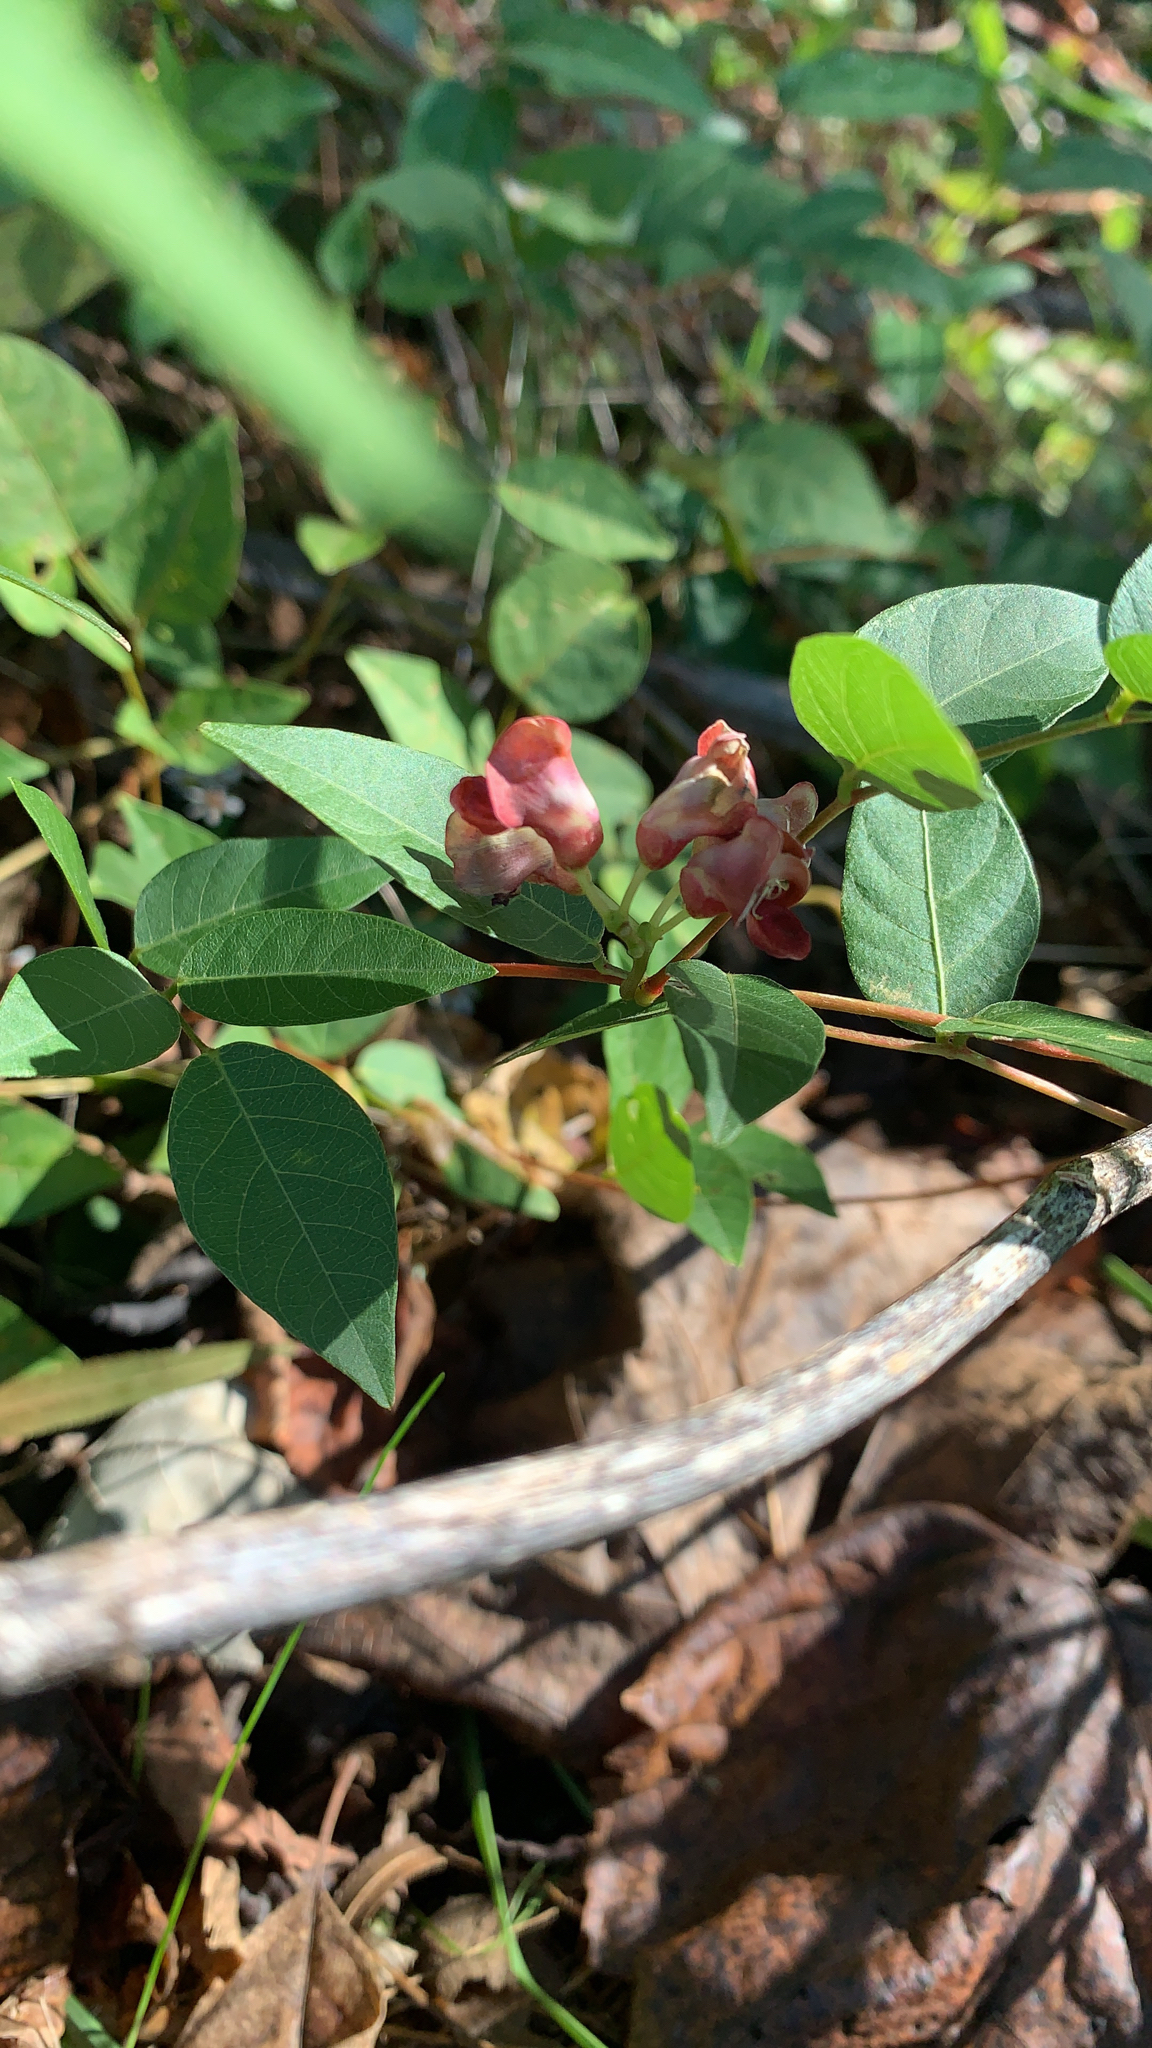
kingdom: Plantae
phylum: Tracheophyta
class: Magnoliopsida
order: Fabales
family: Fabaceae
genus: Apios
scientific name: Apios americana
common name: American potato-bean
